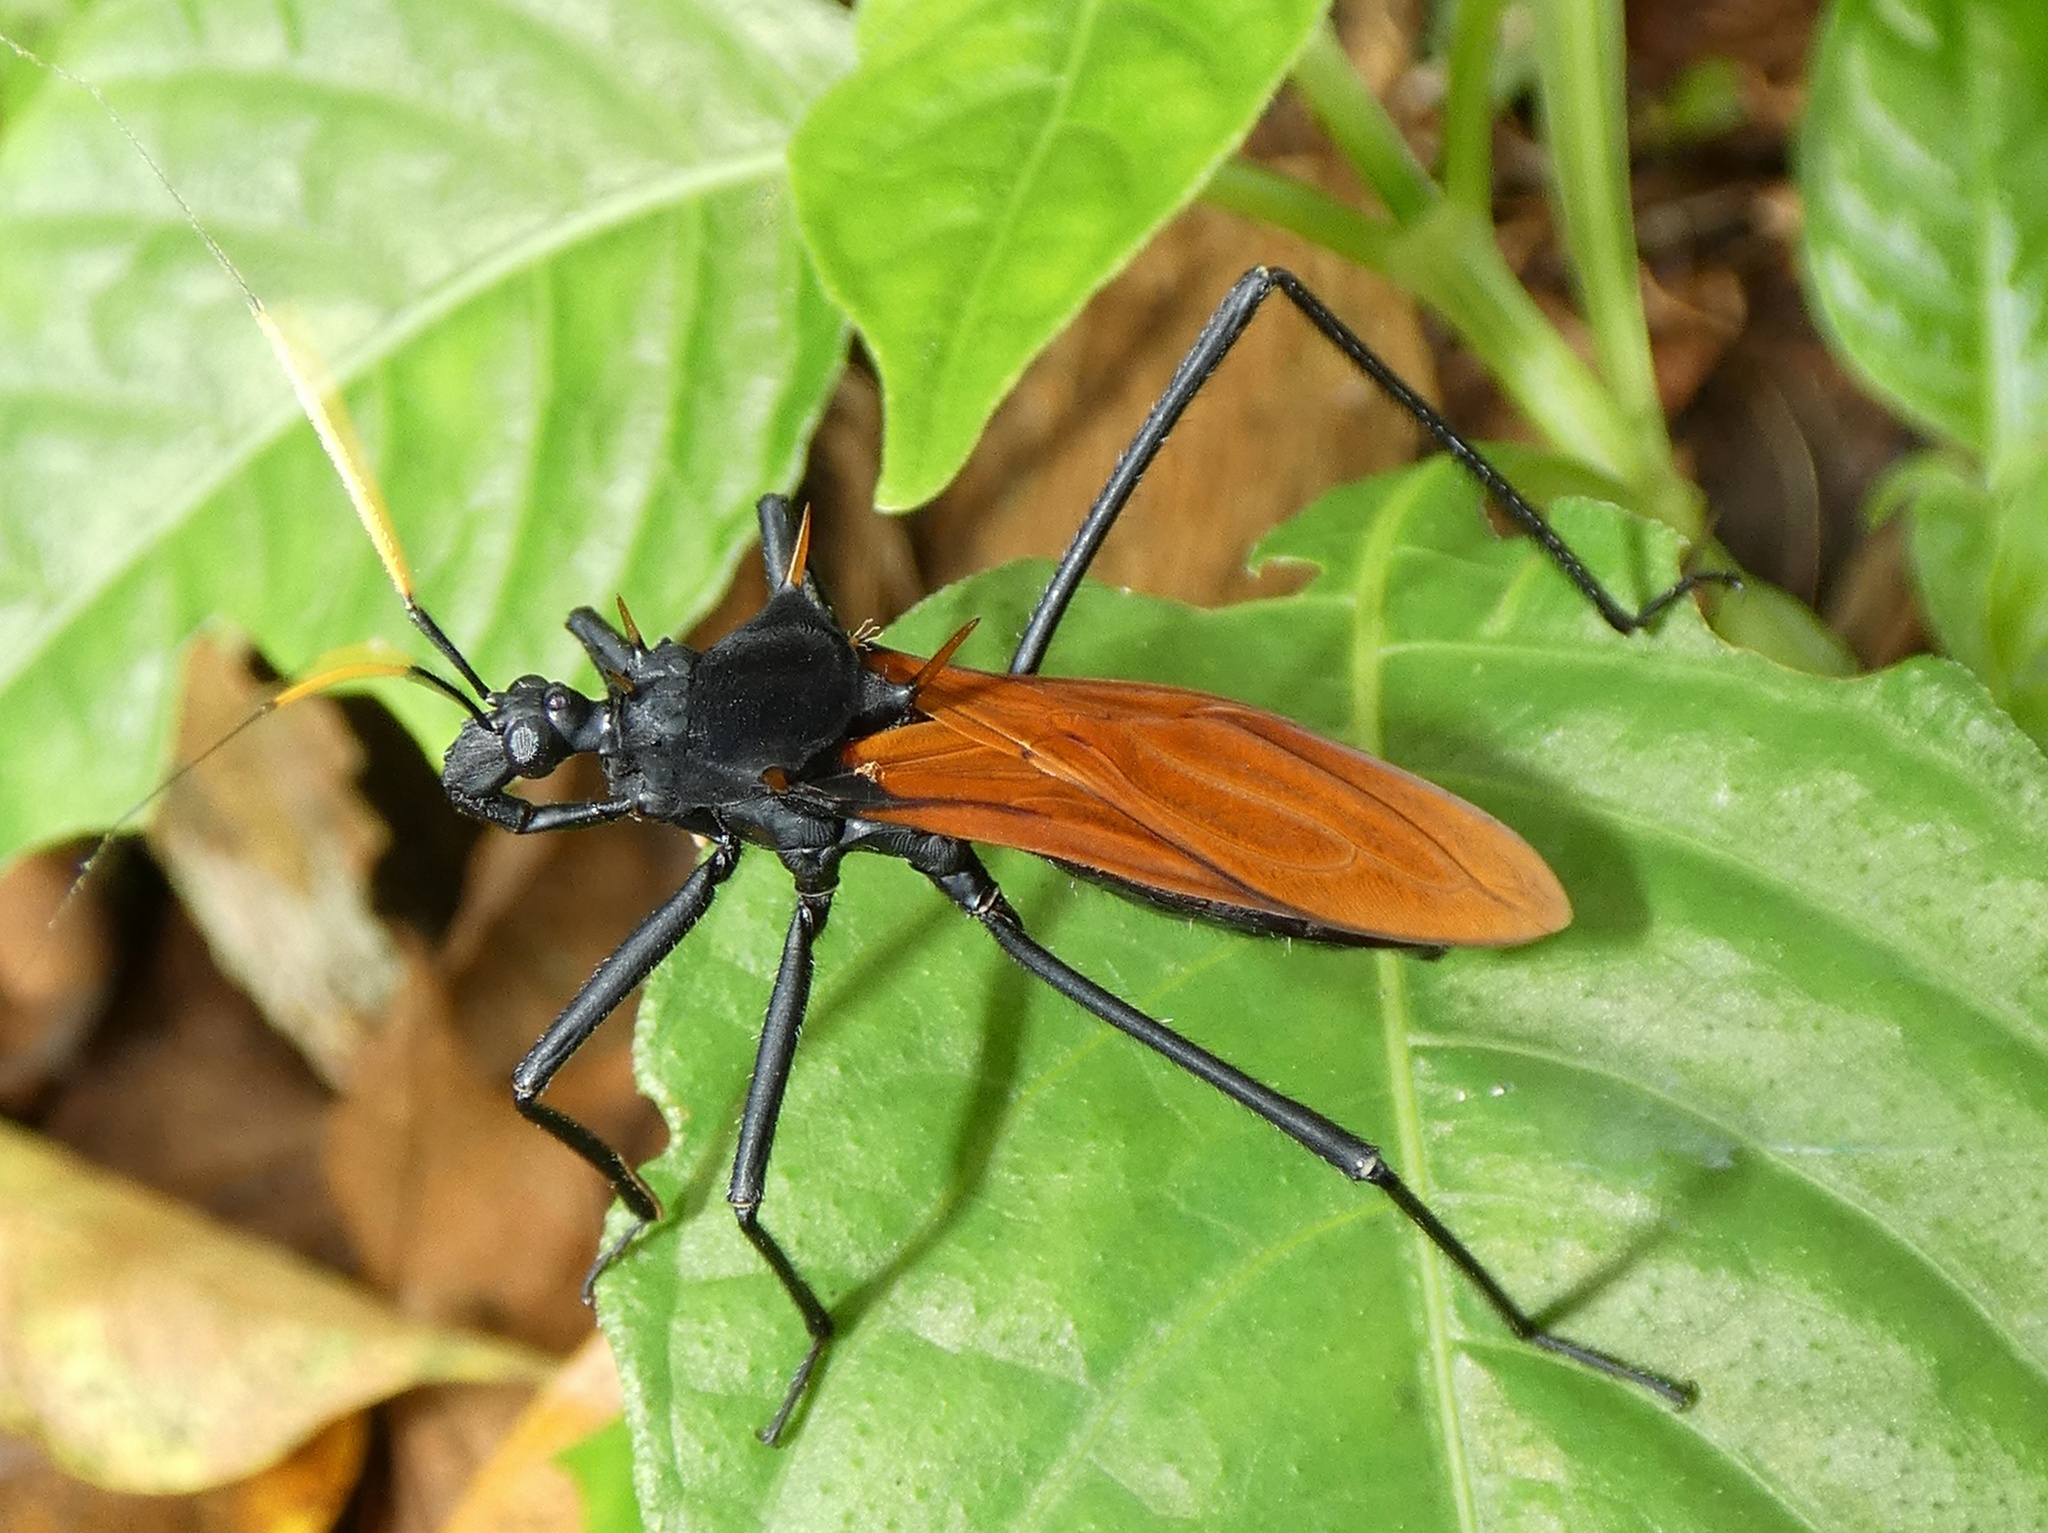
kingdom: Animalia
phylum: Arthropoda
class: Insecta
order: Hemiptera
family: Reduviidae
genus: Zelurus
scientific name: Zelurus spinidorsis
